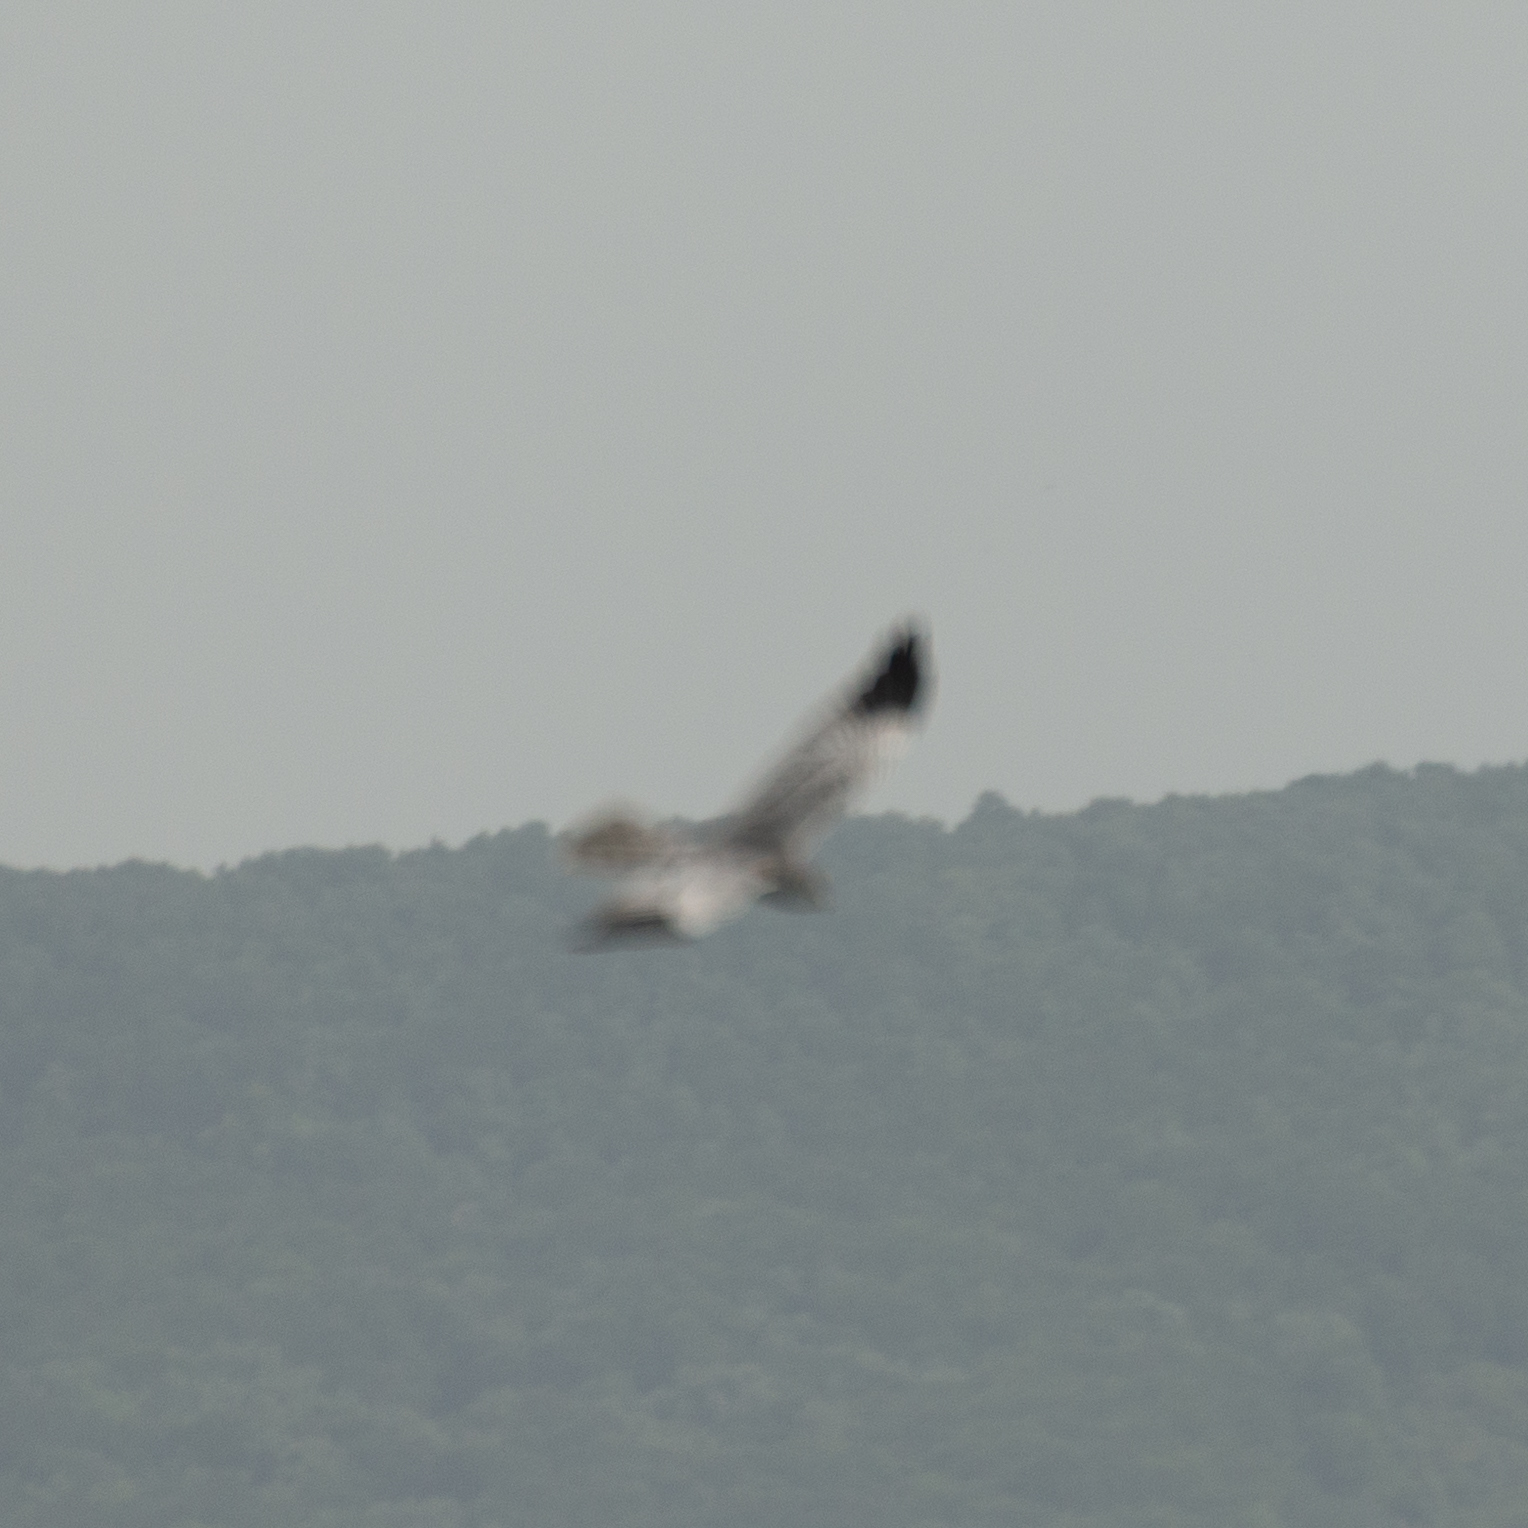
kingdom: Animalia
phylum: Chordata
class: Aves
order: Accipitriformes
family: Accipitridae
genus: Circus
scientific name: Circus pygargus
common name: Montagu's harrier
